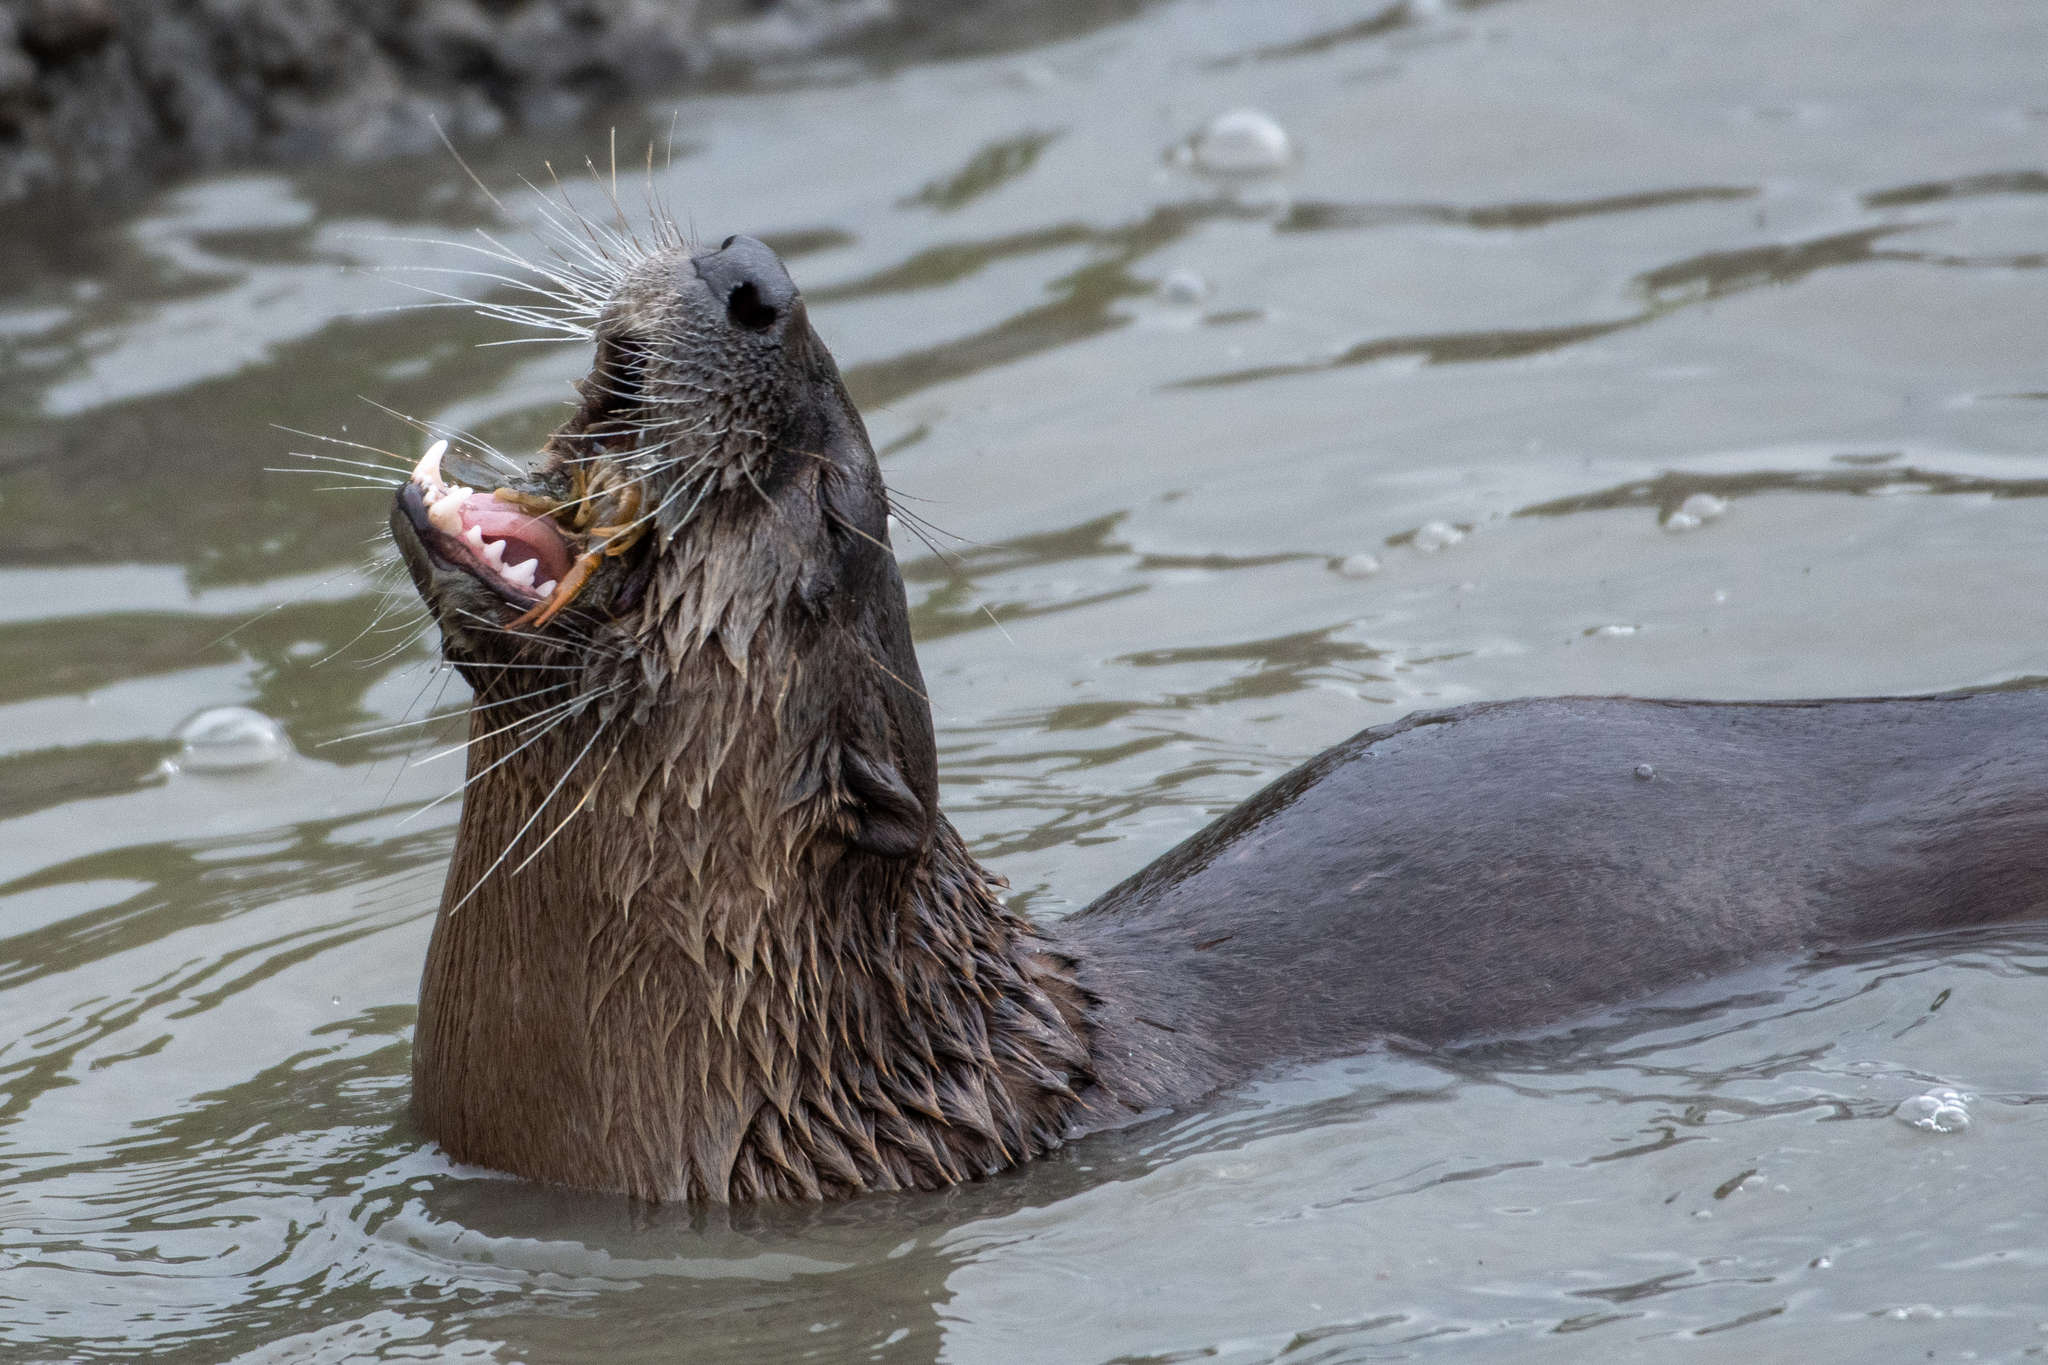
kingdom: Animalia
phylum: Chordata
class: Mammalia
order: Carnivora
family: Mustelidae
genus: Lontra
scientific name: Lontra canadensis
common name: North american river otter
